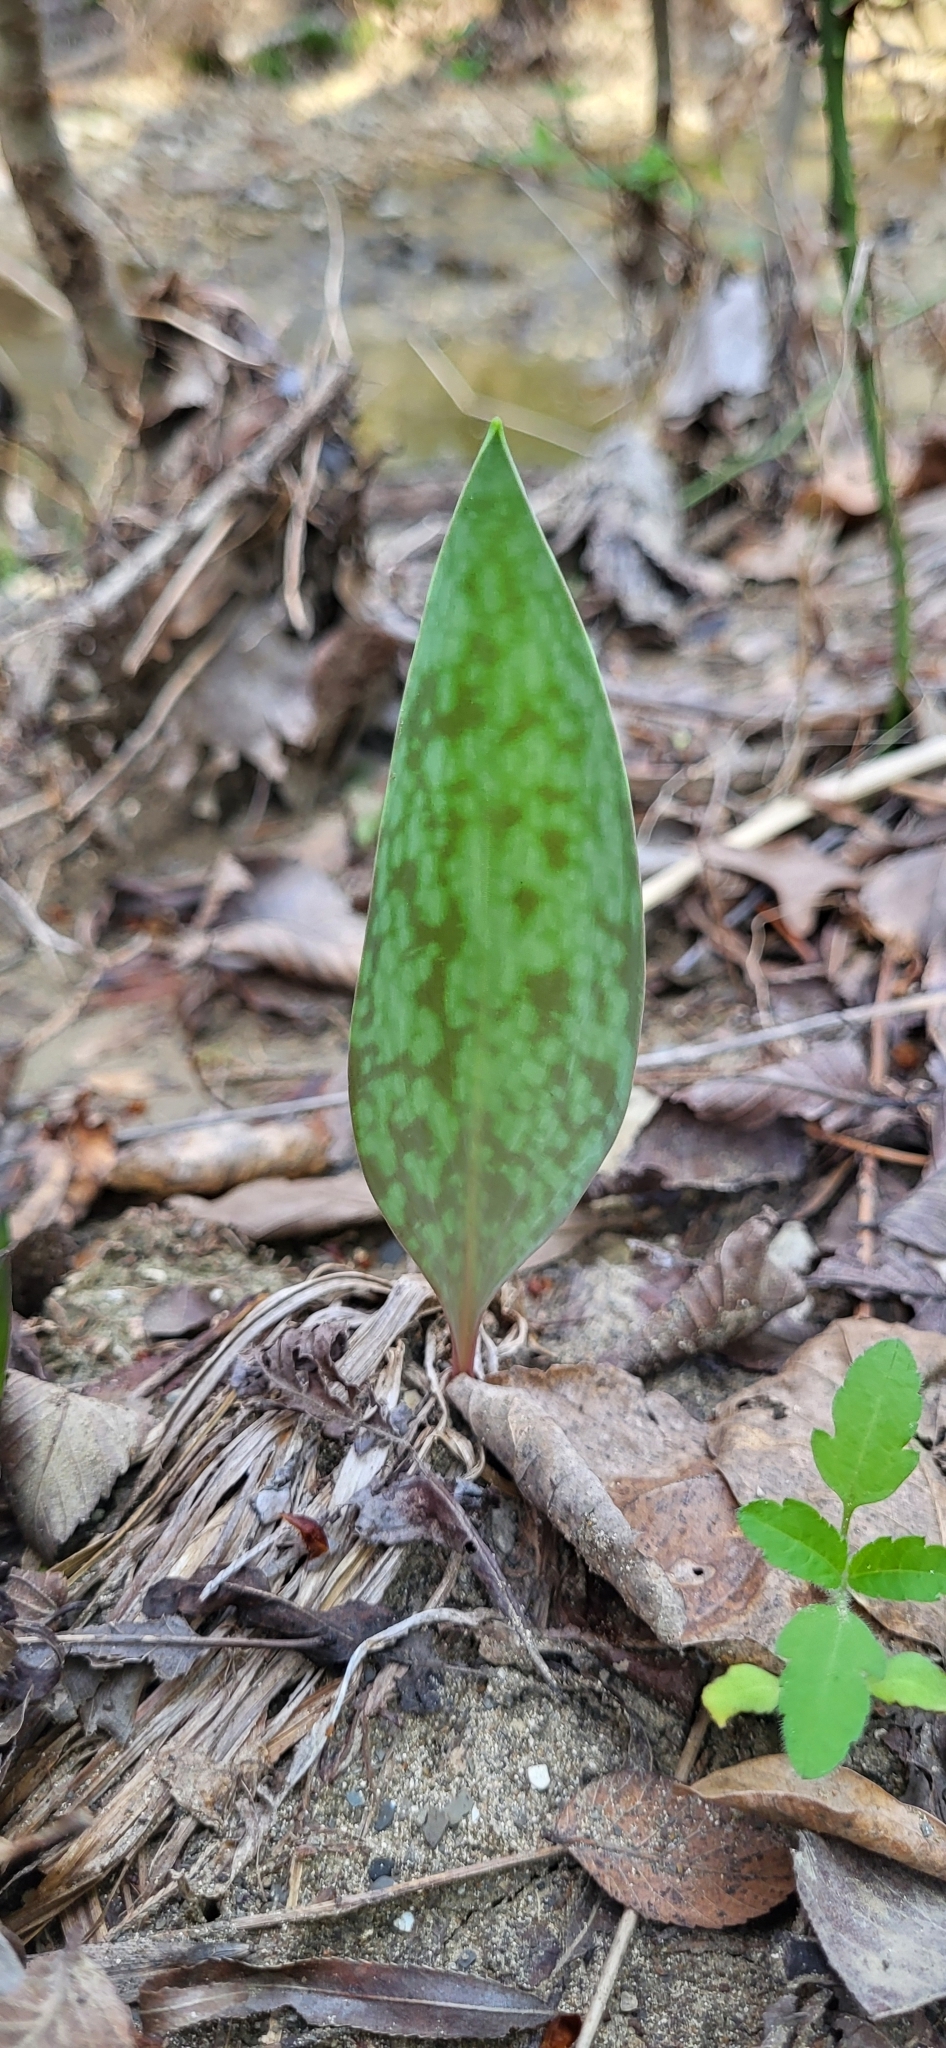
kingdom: Plantae
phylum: Tracheophyta
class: Liliopsida
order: Liliales
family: Liliaceae
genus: Erythronium
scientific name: Erythronium albidum
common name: White trout-lily
